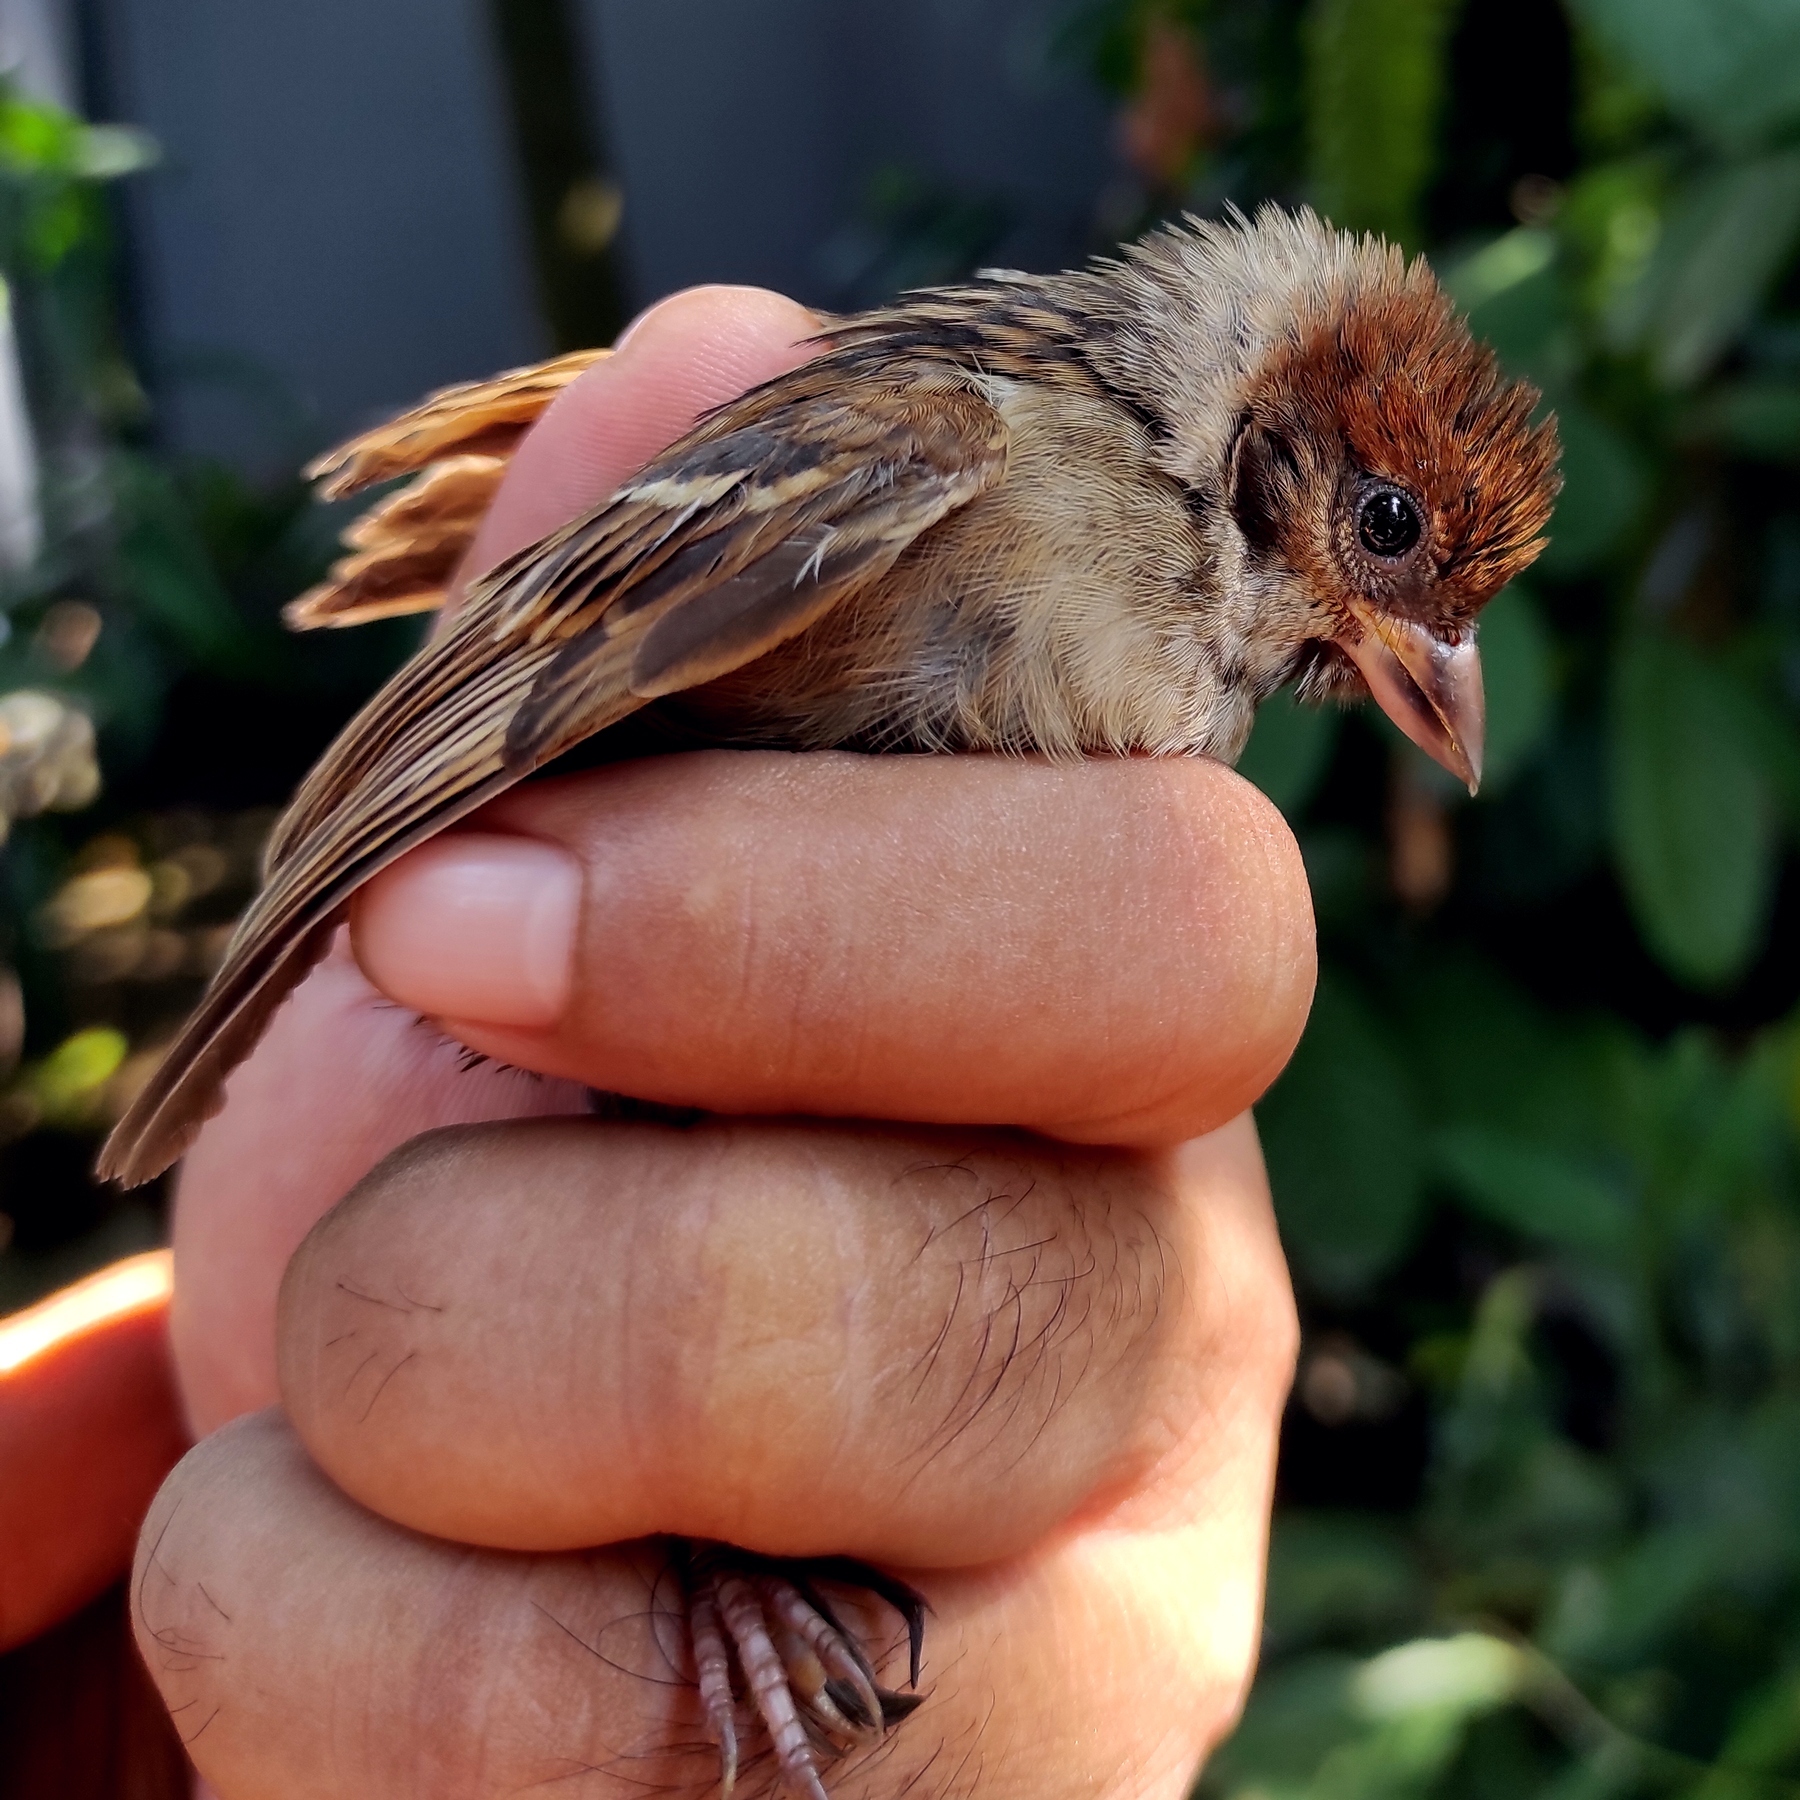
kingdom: Animalia
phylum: Chordata
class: Aves
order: Passeriformes
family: Passeridae
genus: Passer
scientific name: Passer montanus
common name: Eurasian tree sparrow
